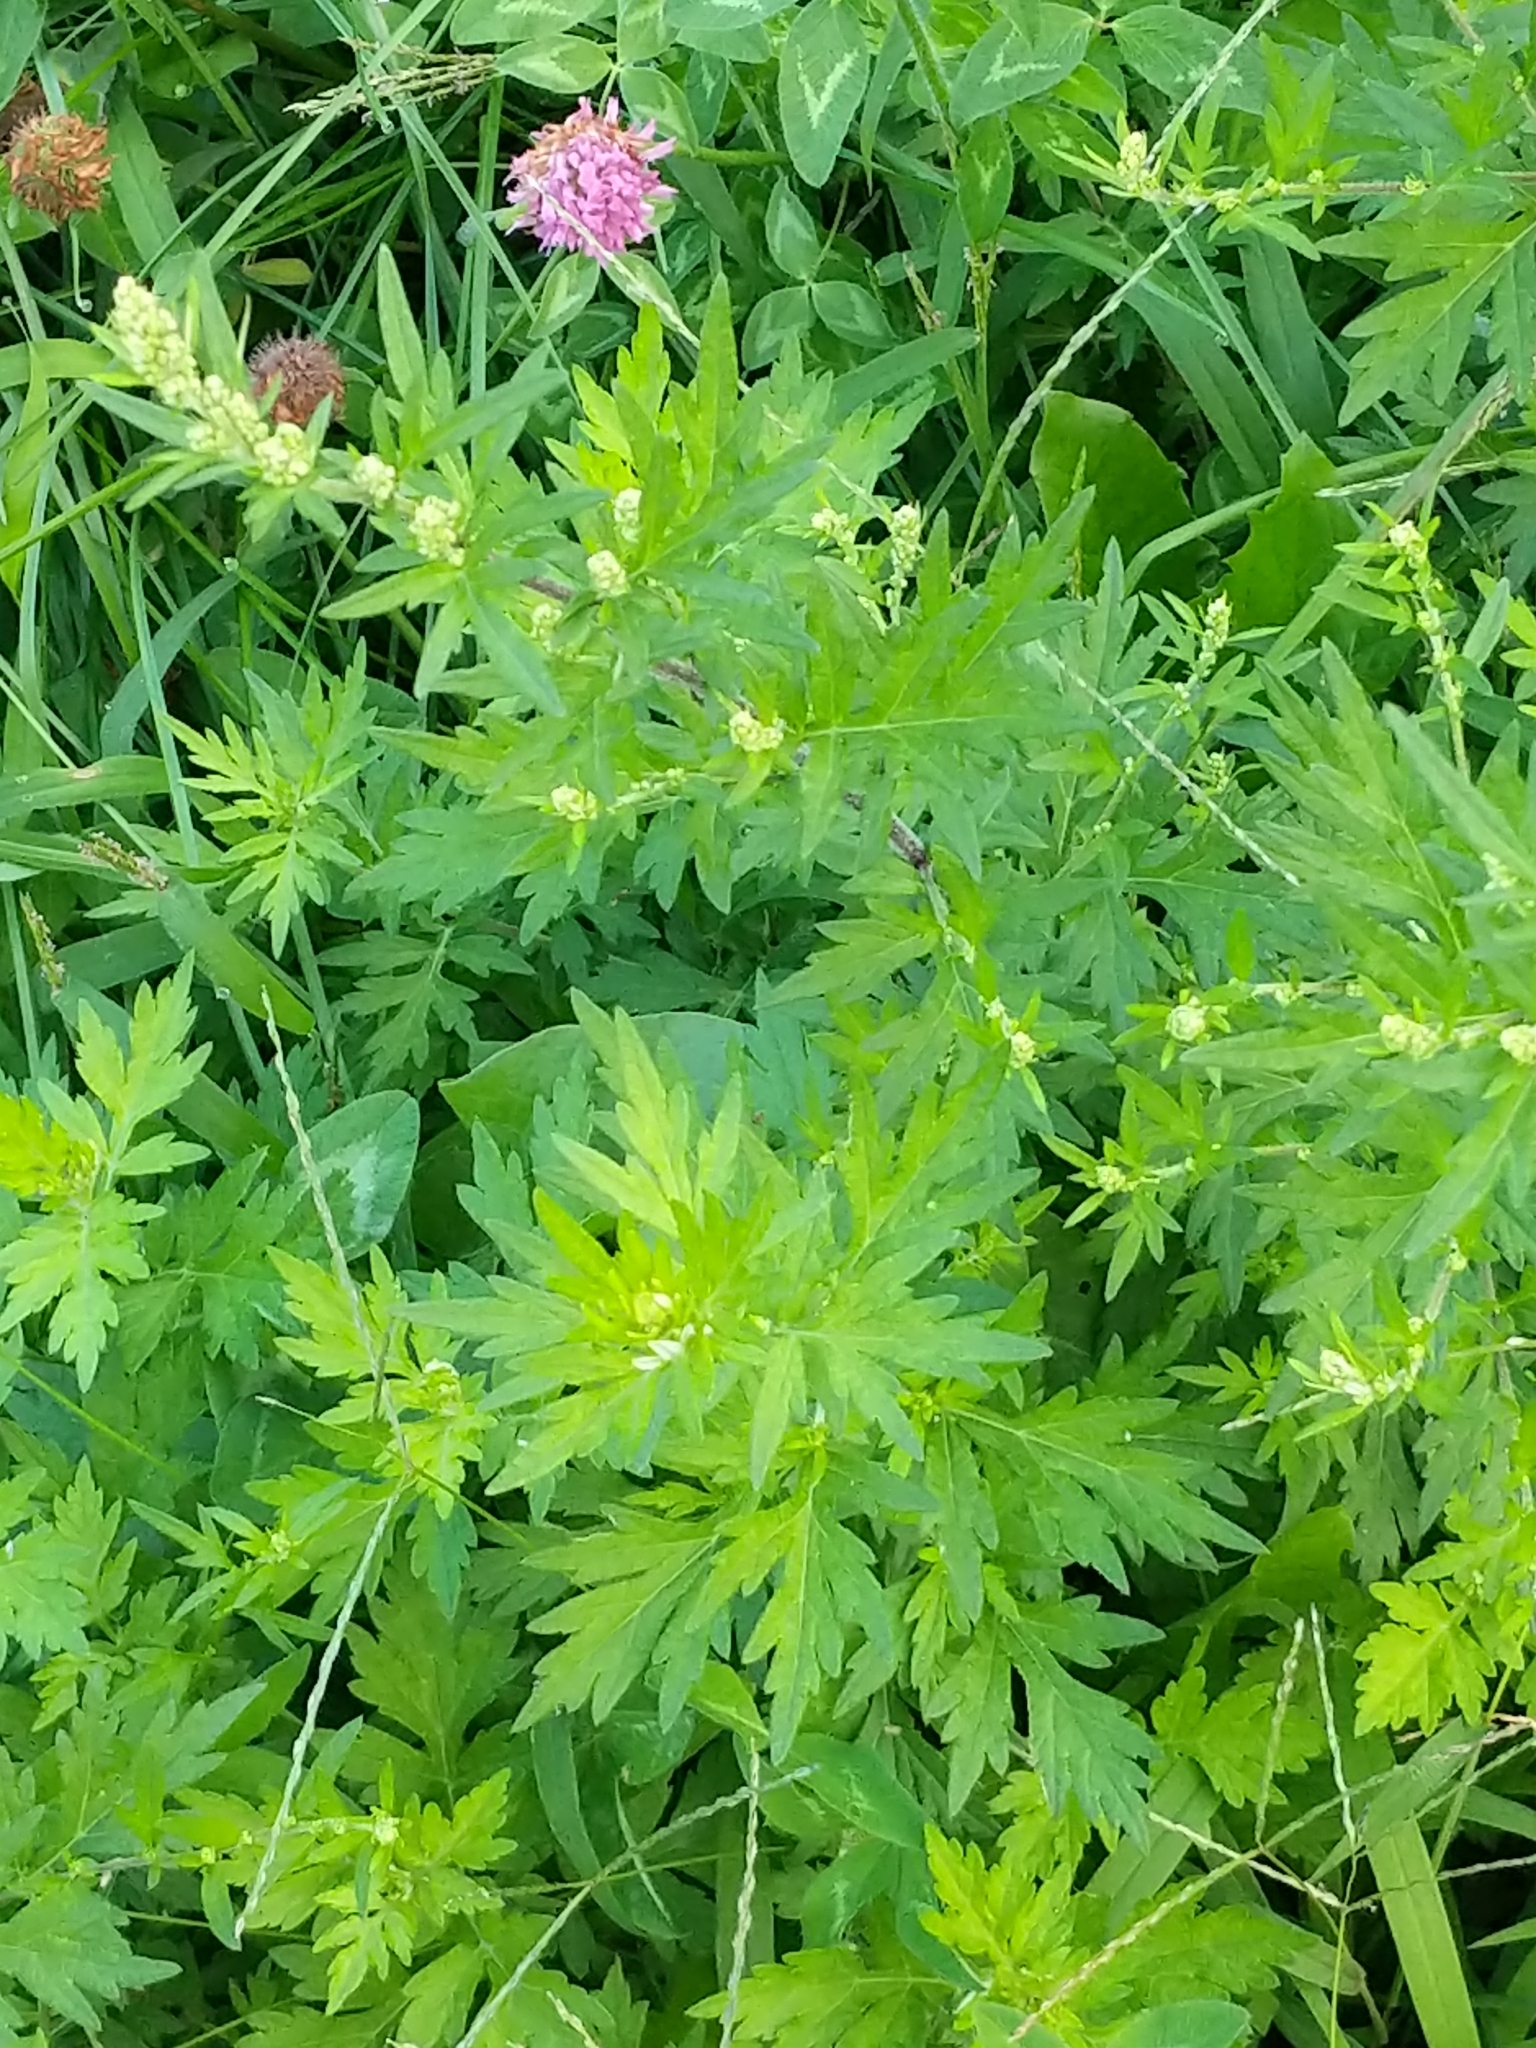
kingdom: Plantae
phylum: Tracheophyta
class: Magnoliopsida
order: Asterales
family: Asteraceae
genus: Artemisia
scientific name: Artemisia vulgaris
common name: Mugwort
